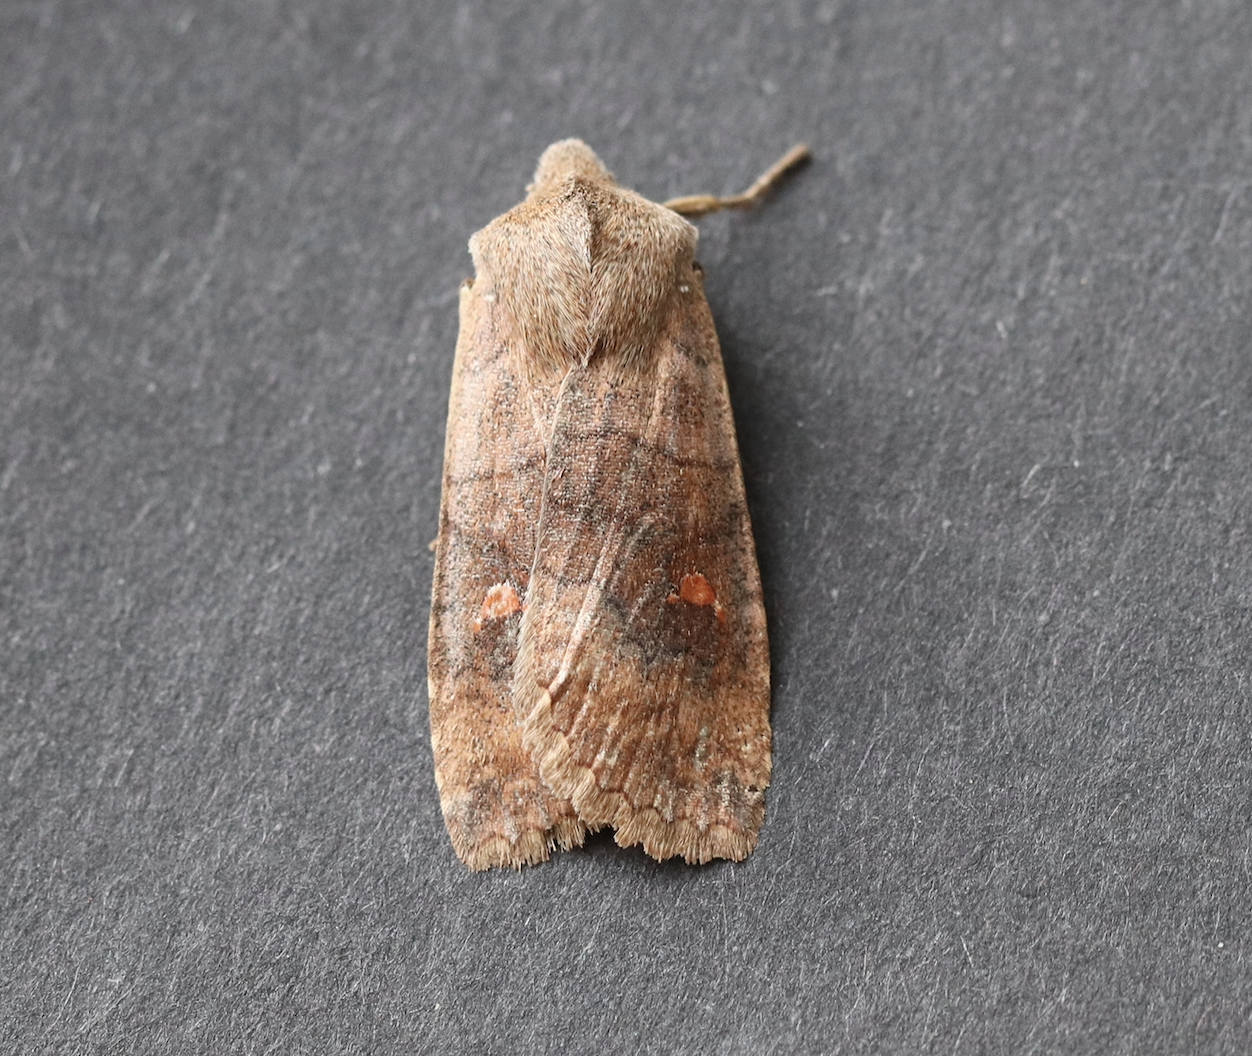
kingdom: Animalia
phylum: Arthropoda
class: Insecta
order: Lepidoptera
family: Noctuidae
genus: Eupsilia
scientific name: Eupsilia transversa
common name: Satellite
